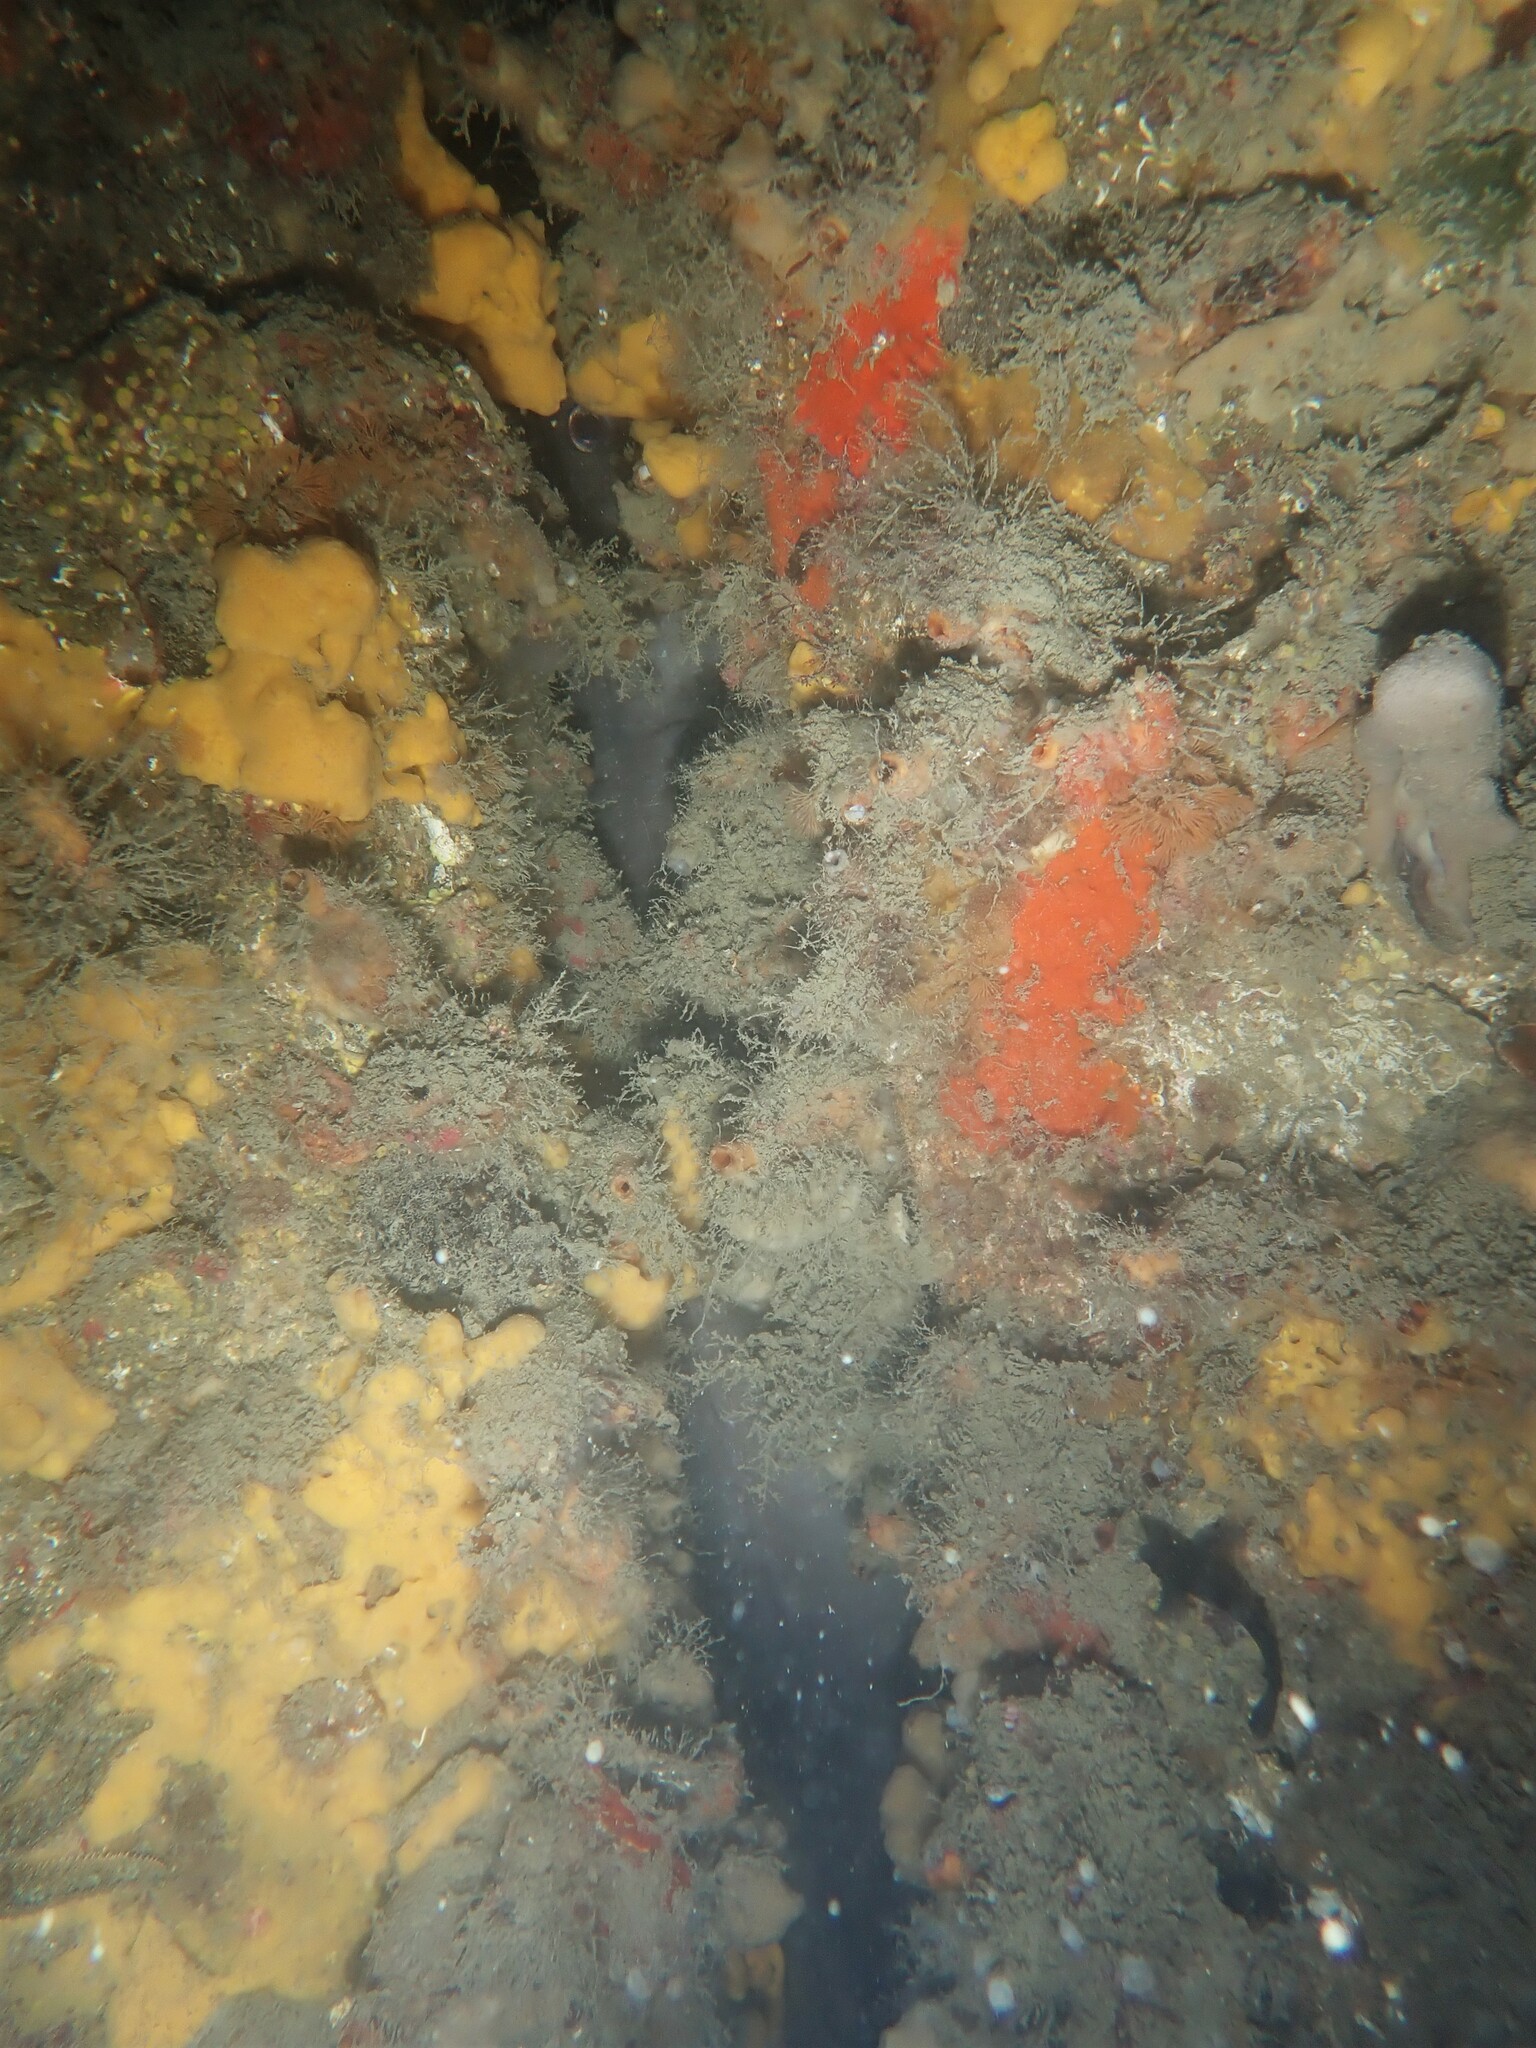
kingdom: Animalia
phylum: Chordata
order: Anguilliformes
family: Congridae
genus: Conger
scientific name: Conger verreauxi
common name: Conger eel
